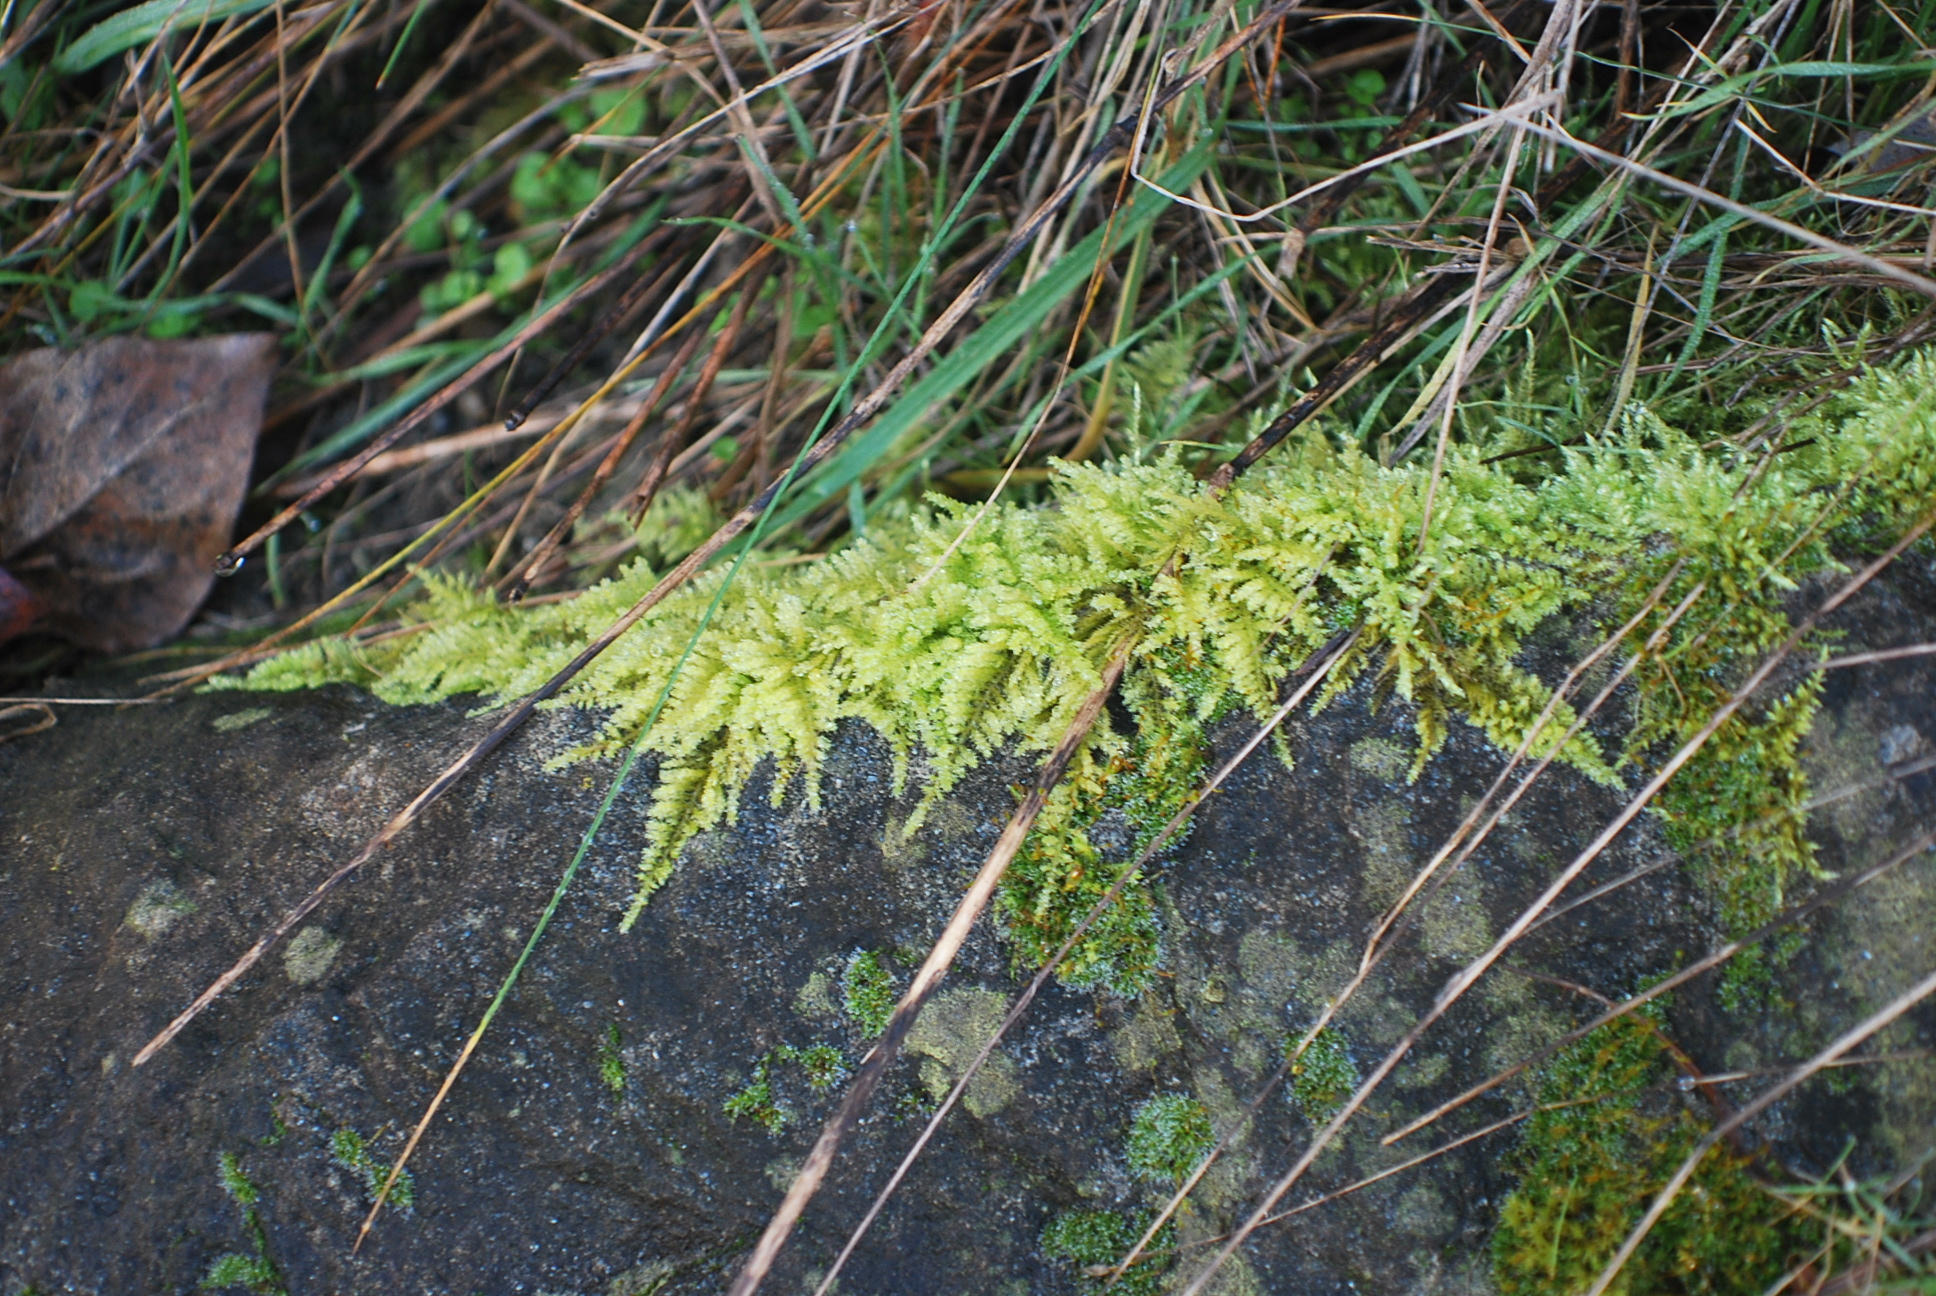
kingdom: Plantae
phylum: Bryophyta
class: Bryopsida
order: Hypnales
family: Brachytheciaceae
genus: Kindbergia
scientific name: Kindbergia oregana
